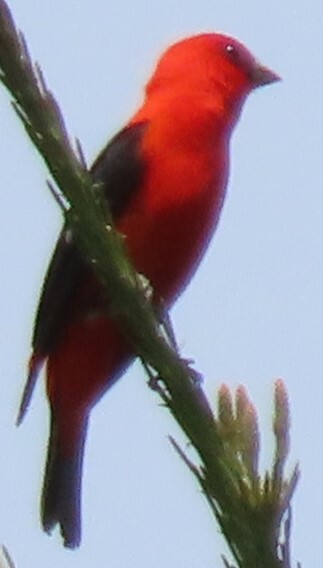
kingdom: Animalia
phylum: Chordata
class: Aves
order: Passeriformes
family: Cardinalidae
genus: Piranga
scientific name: Piranga olivacea
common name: Scarlet tanager
